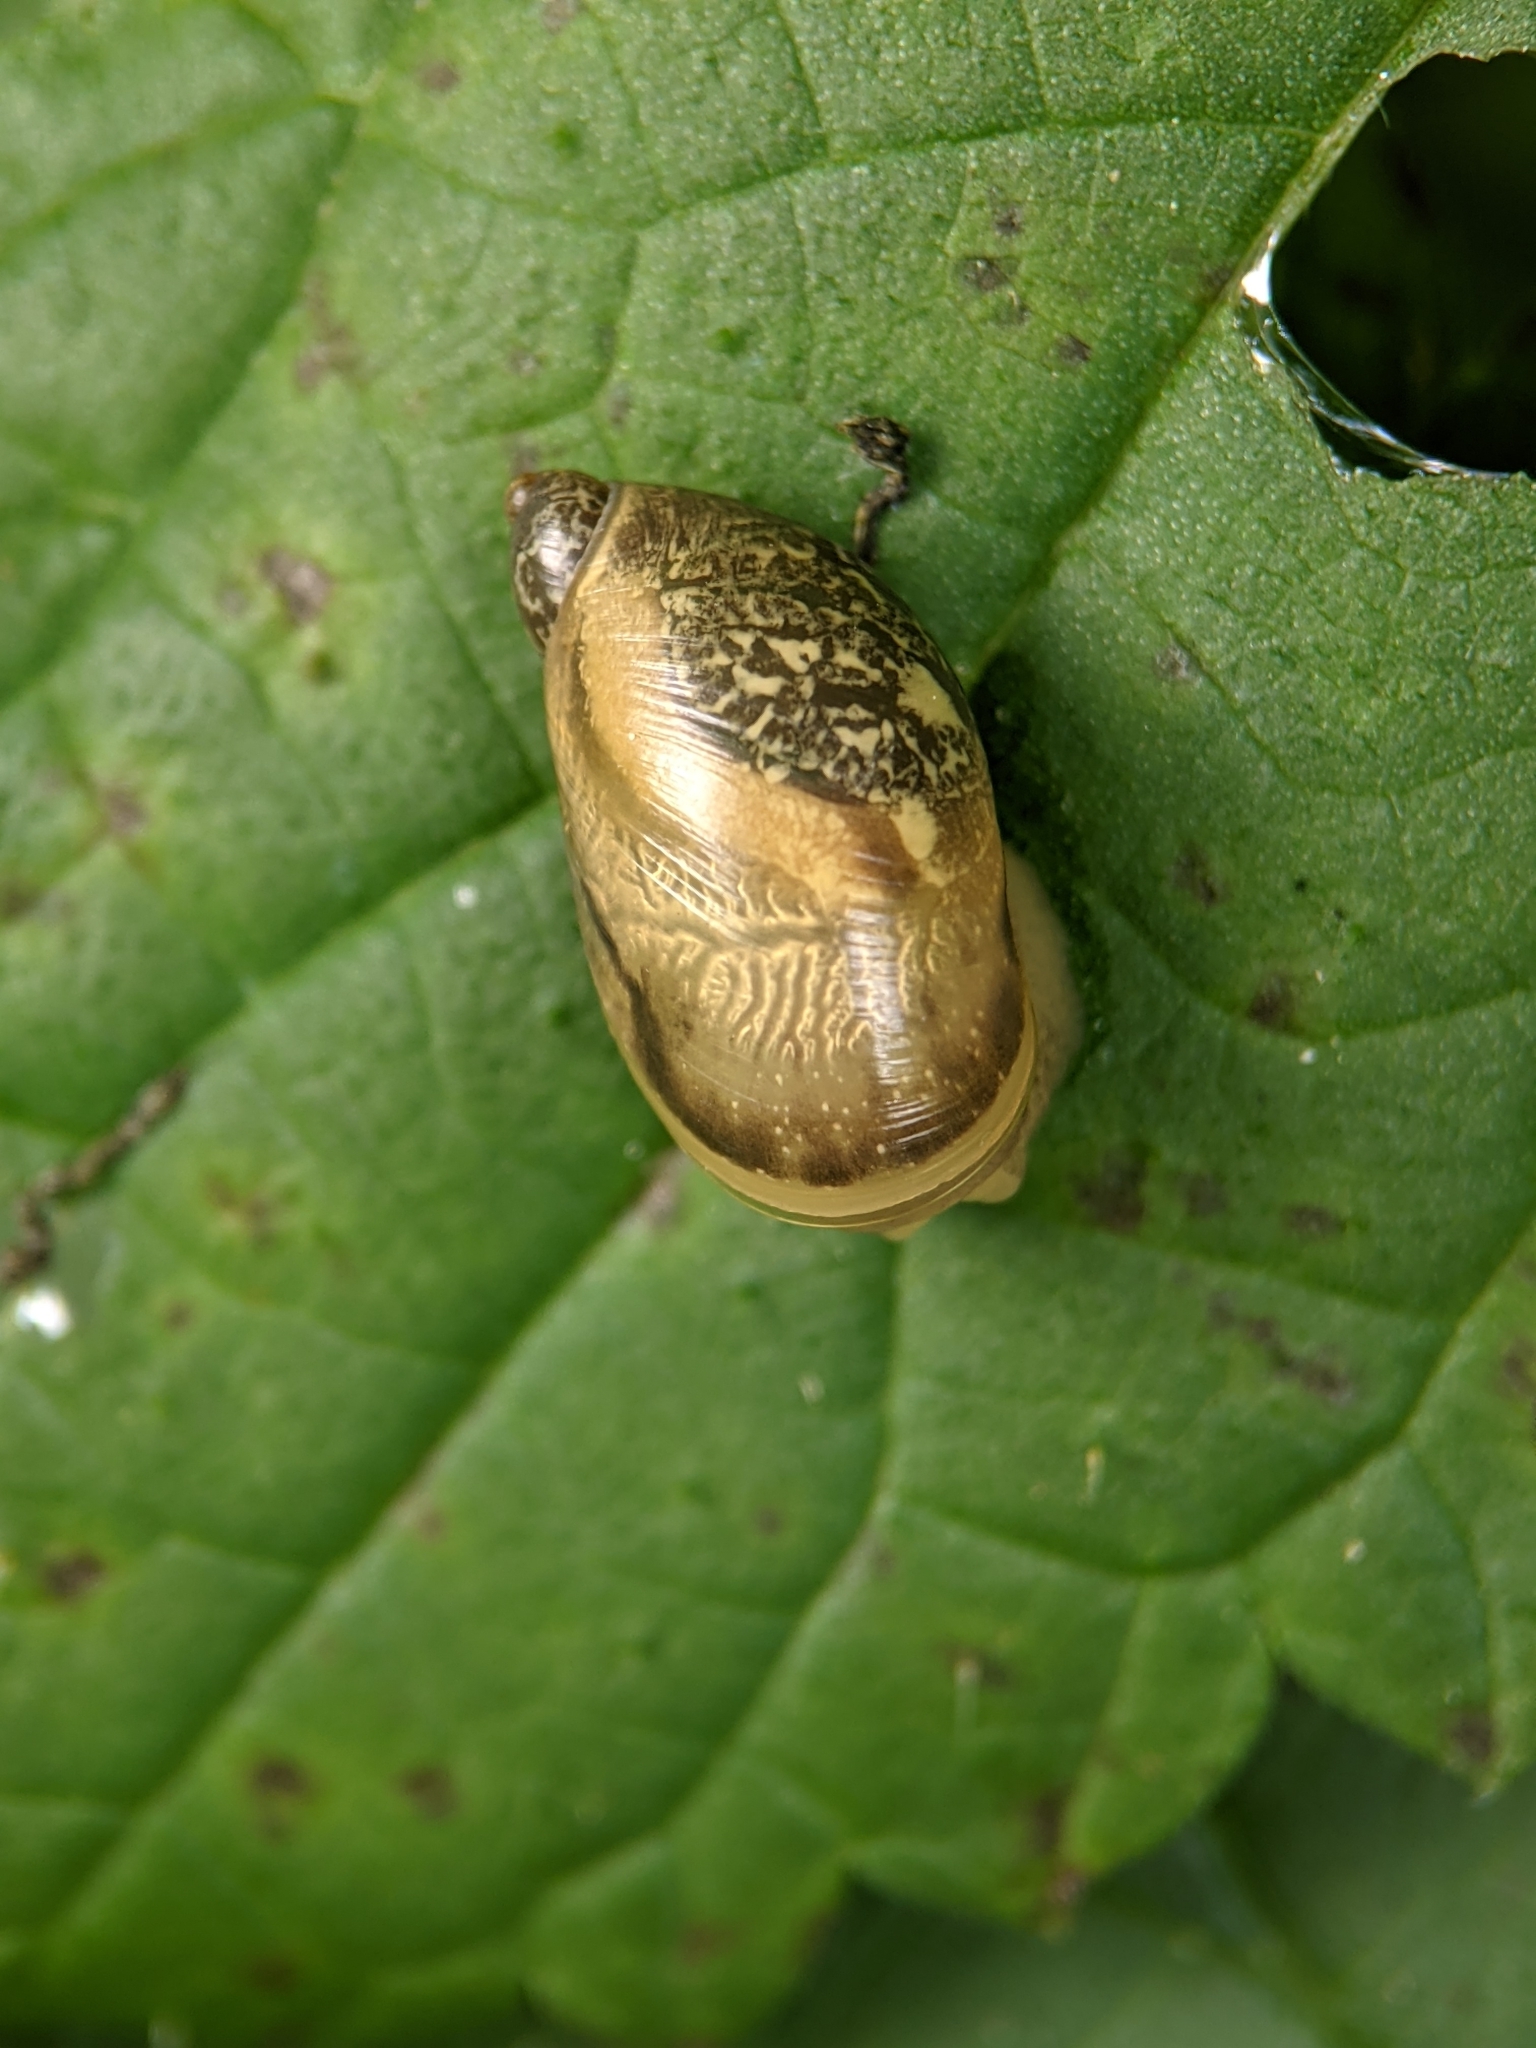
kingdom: Animalia
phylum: Mollusca
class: Gastropoda
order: Stylommatophora
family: Succineidae
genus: Succinea
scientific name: Succinea putris
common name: European ambersnail
